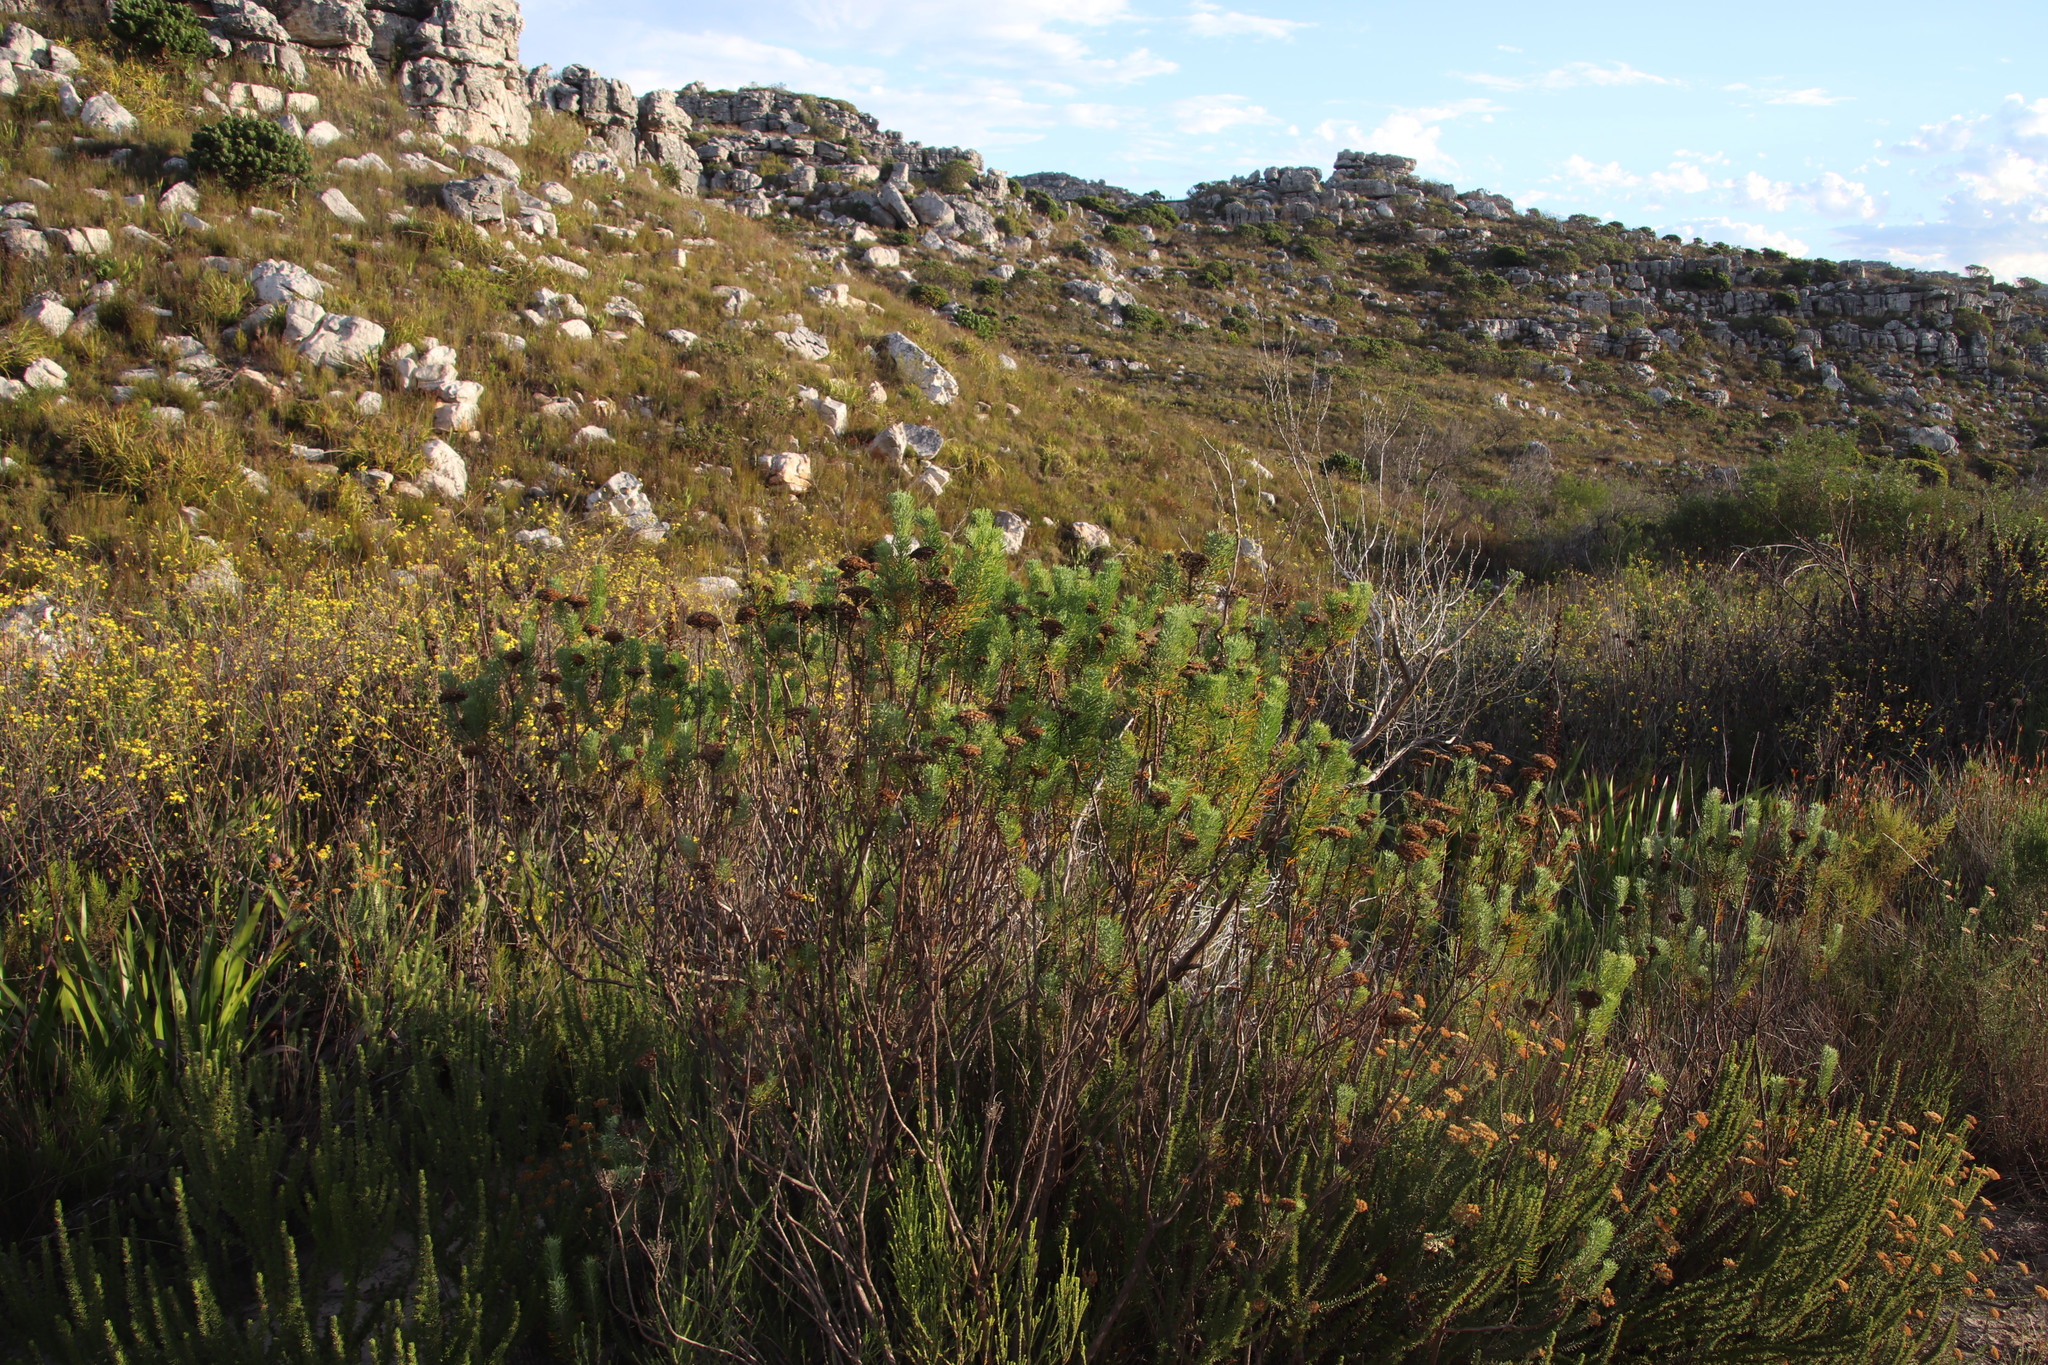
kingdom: Plantae
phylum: Tracheophyta
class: Magnoliopsida
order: Asterales
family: Asteraceae
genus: Athanasia
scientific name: Athanasia crithmifolia
